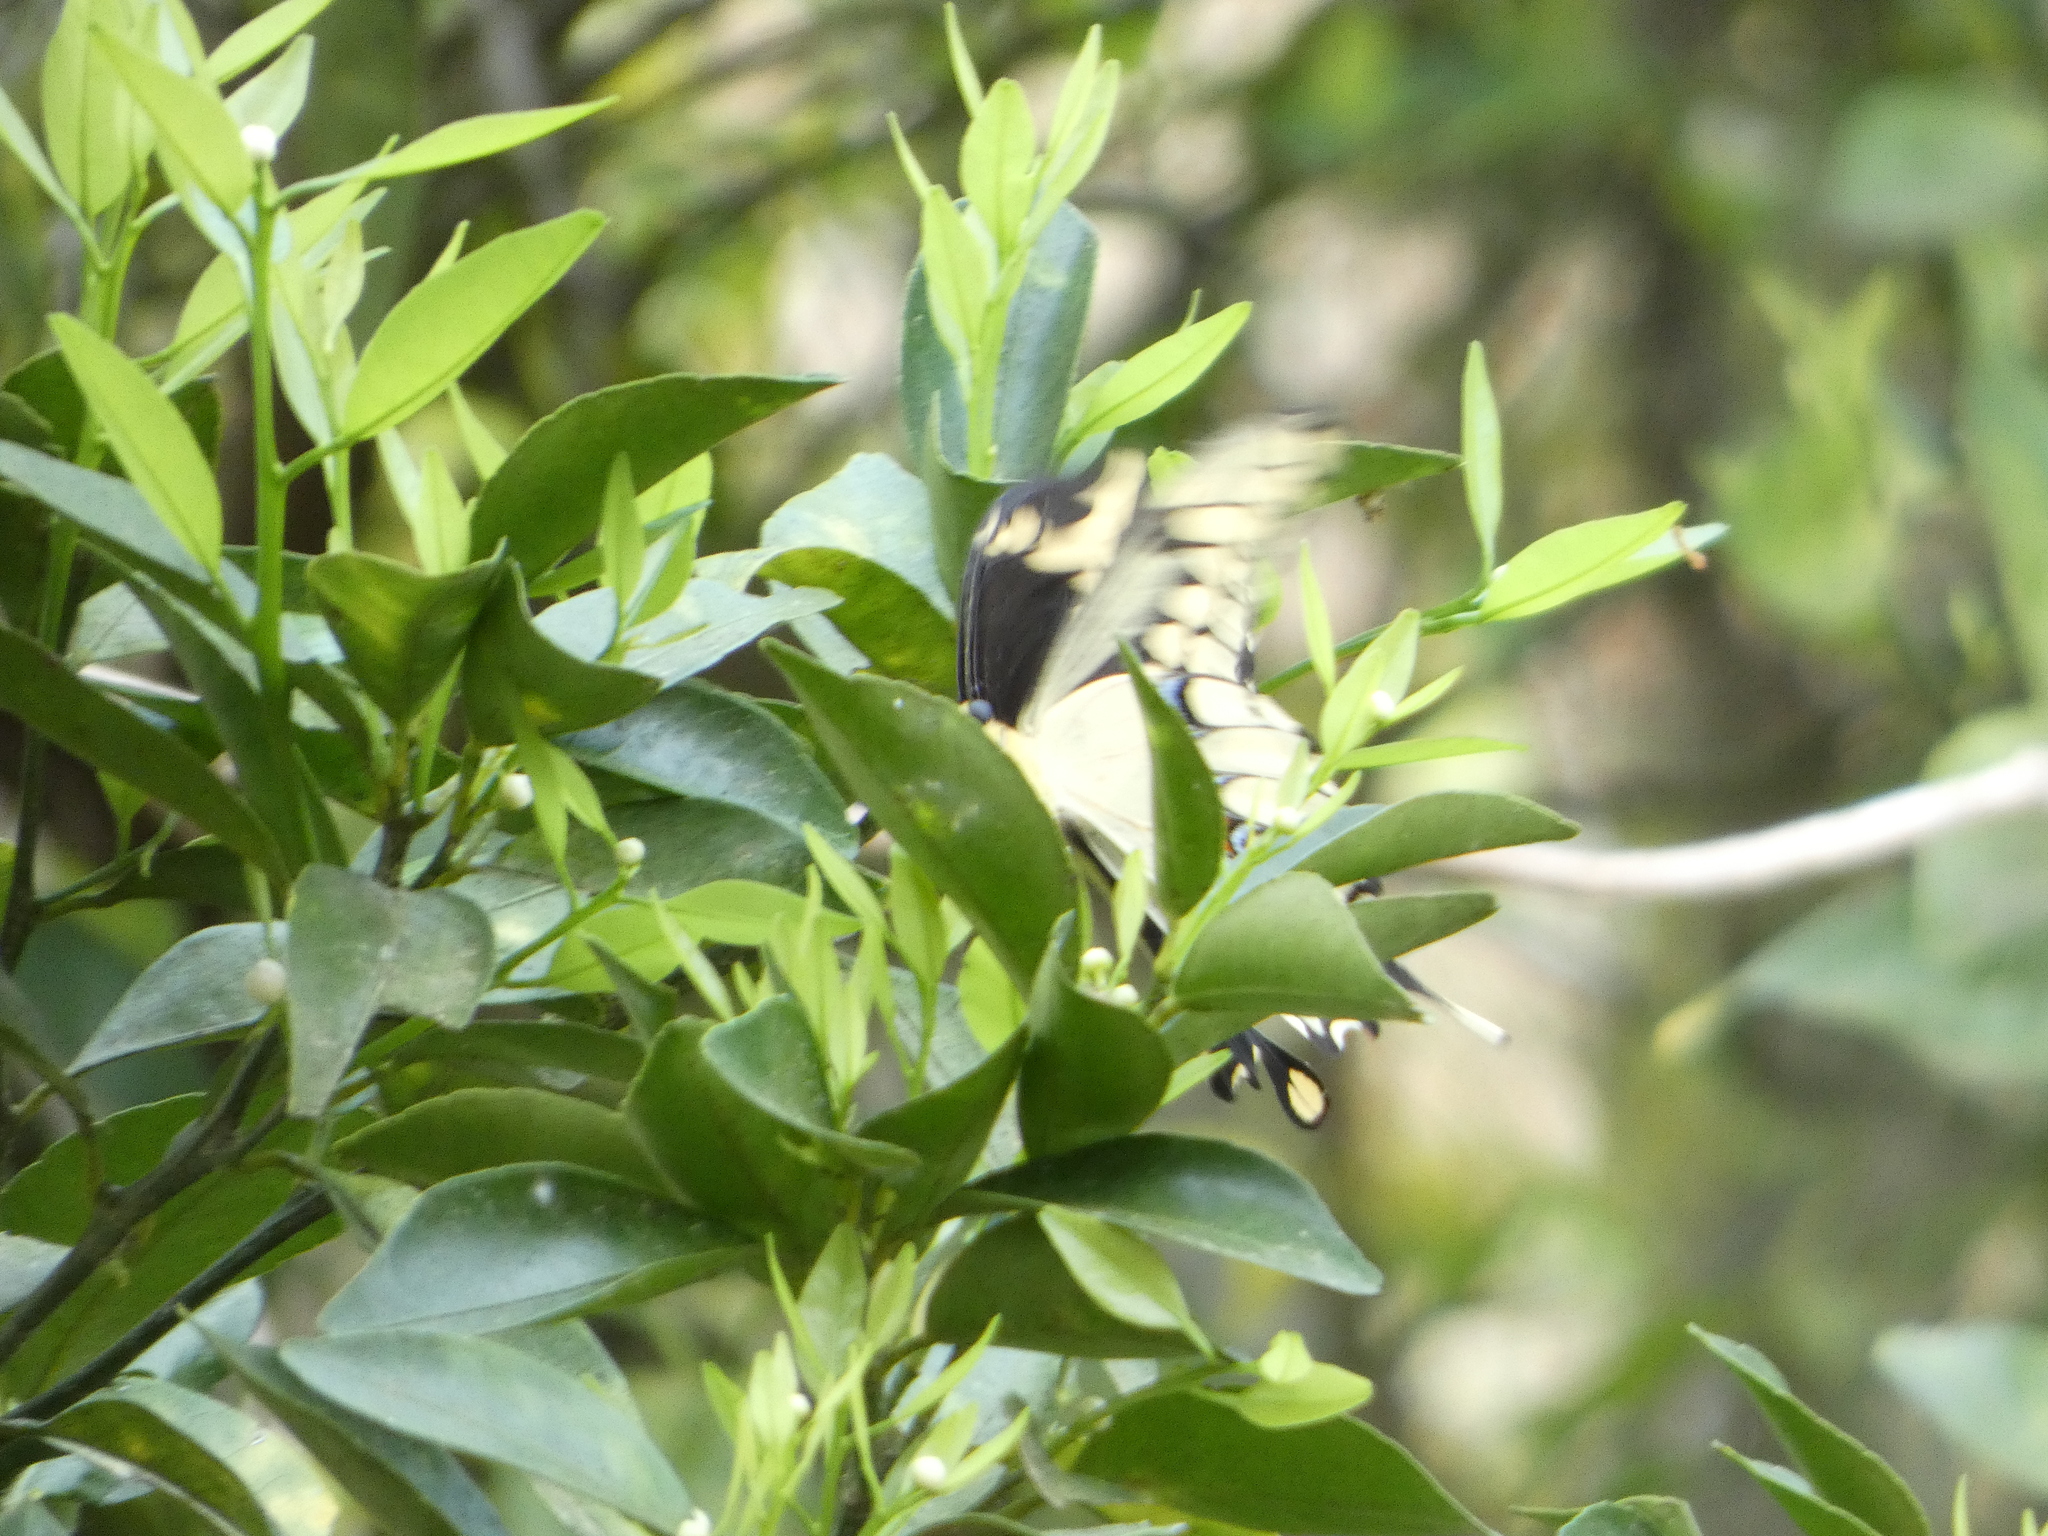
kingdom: Animalia
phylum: Arthropoda
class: Insecta
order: Lepidoptera
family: Papilionidae
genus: Papilio
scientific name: Papilio cresphontes
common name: Giant swallowtail
